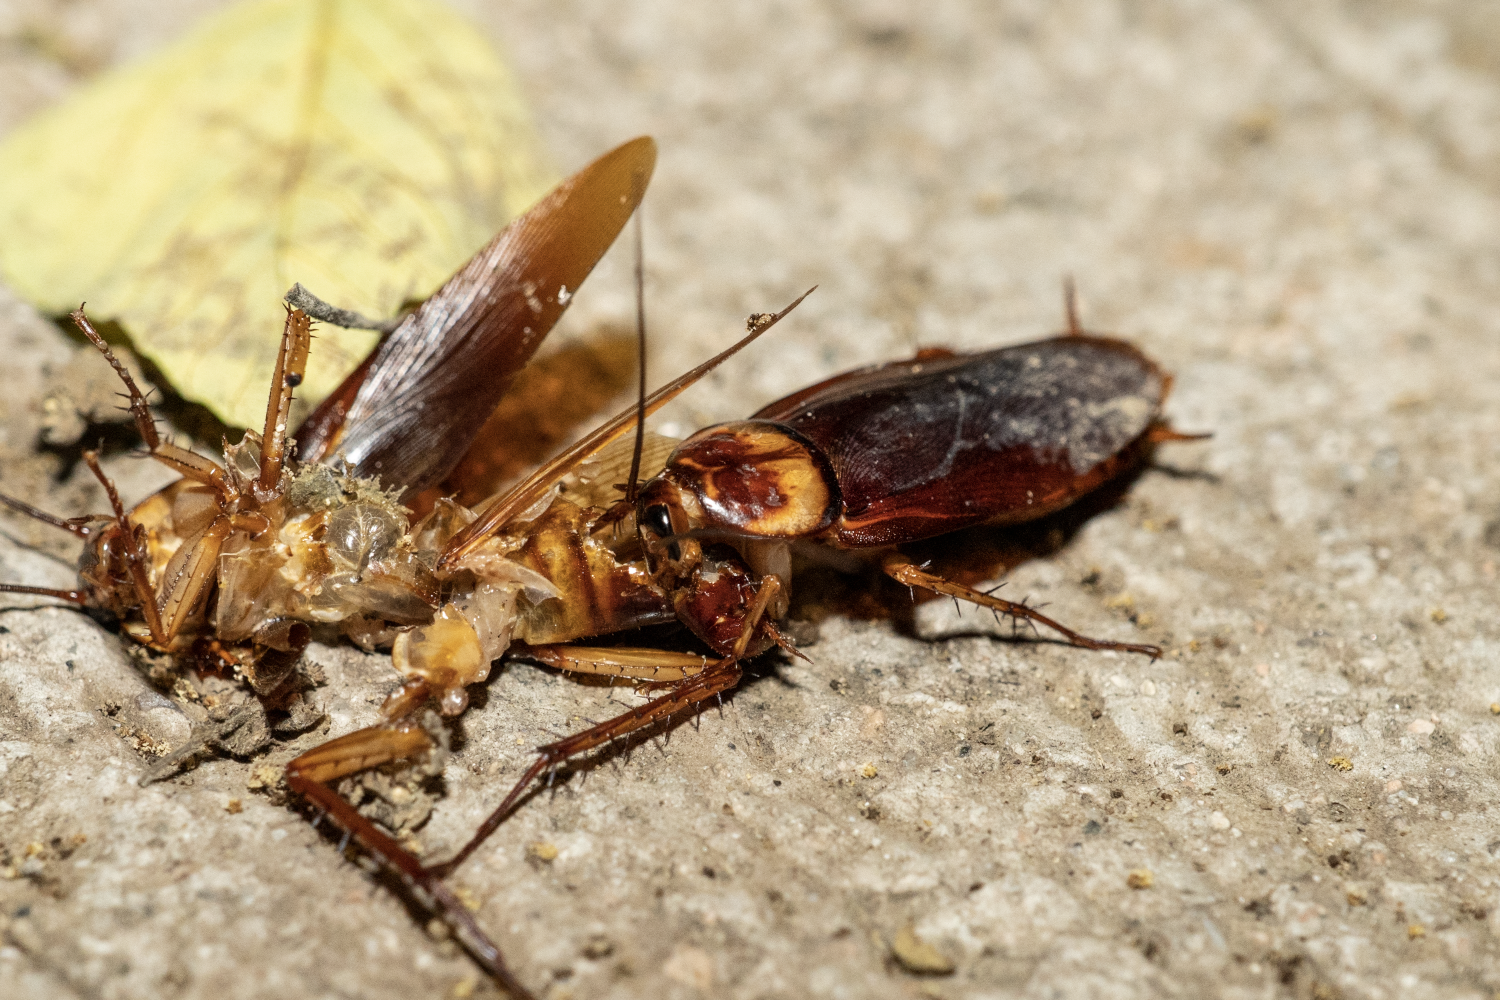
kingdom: Animalia
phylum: Arthropoda
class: Insecta
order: Blattodea
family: Blattidae
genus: Periplaneta
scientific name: Periplaneta americana
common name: American cockroach
